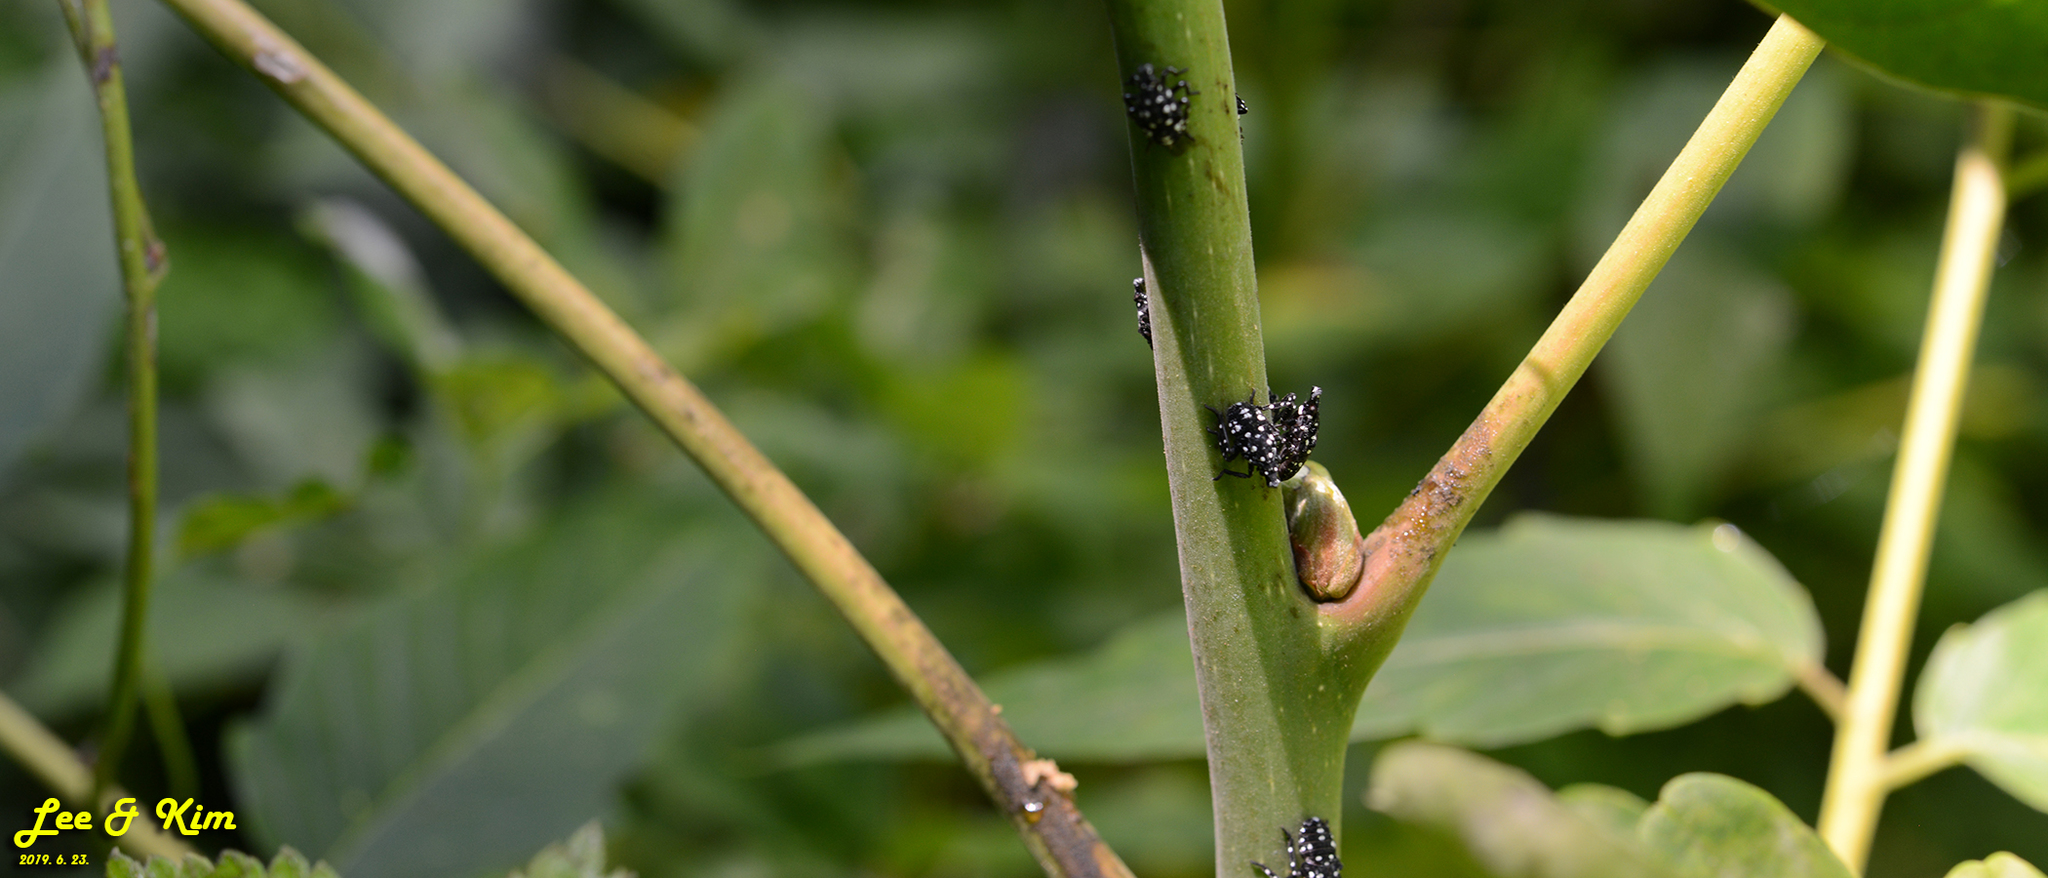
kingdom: Animalia
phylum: Arthropoda
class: Insecta
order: Hemiptera
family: Fulgoridae
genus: Lycorma
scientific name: Lycorma delicatula
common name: Spotted lanternfly
